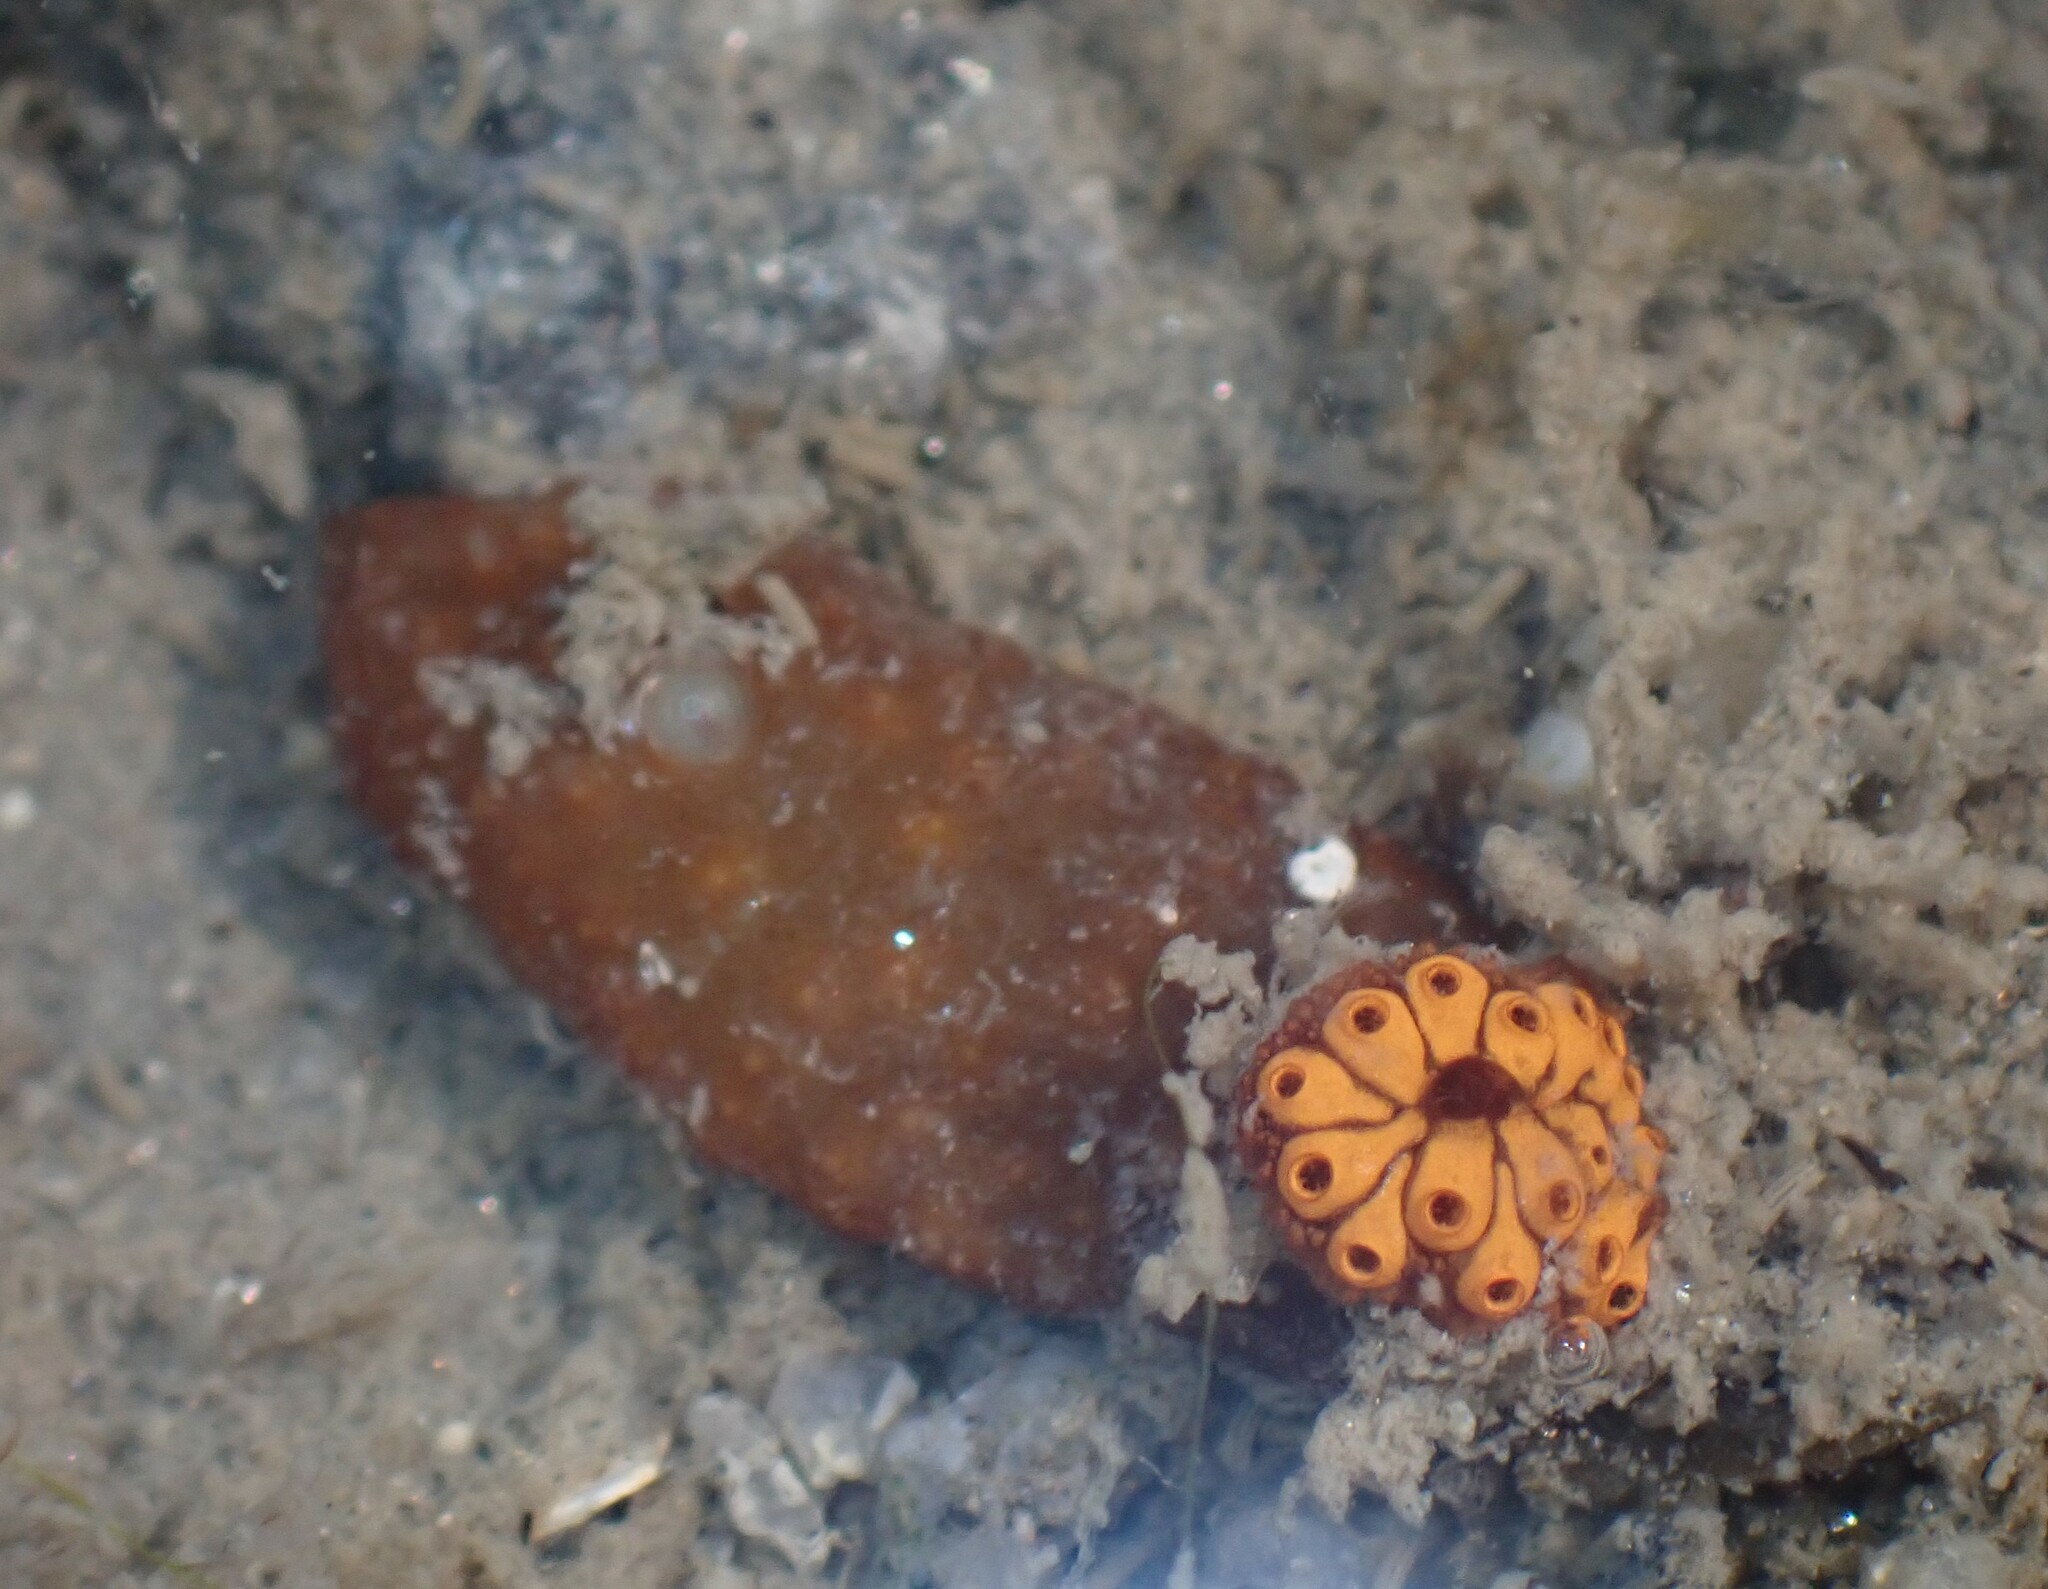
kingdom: Animalia
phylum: Chordata
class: Ascidiacea
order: Stolidobranchia
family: Styelidae
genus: Botrylloides
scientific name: Botrylloides diegensis
